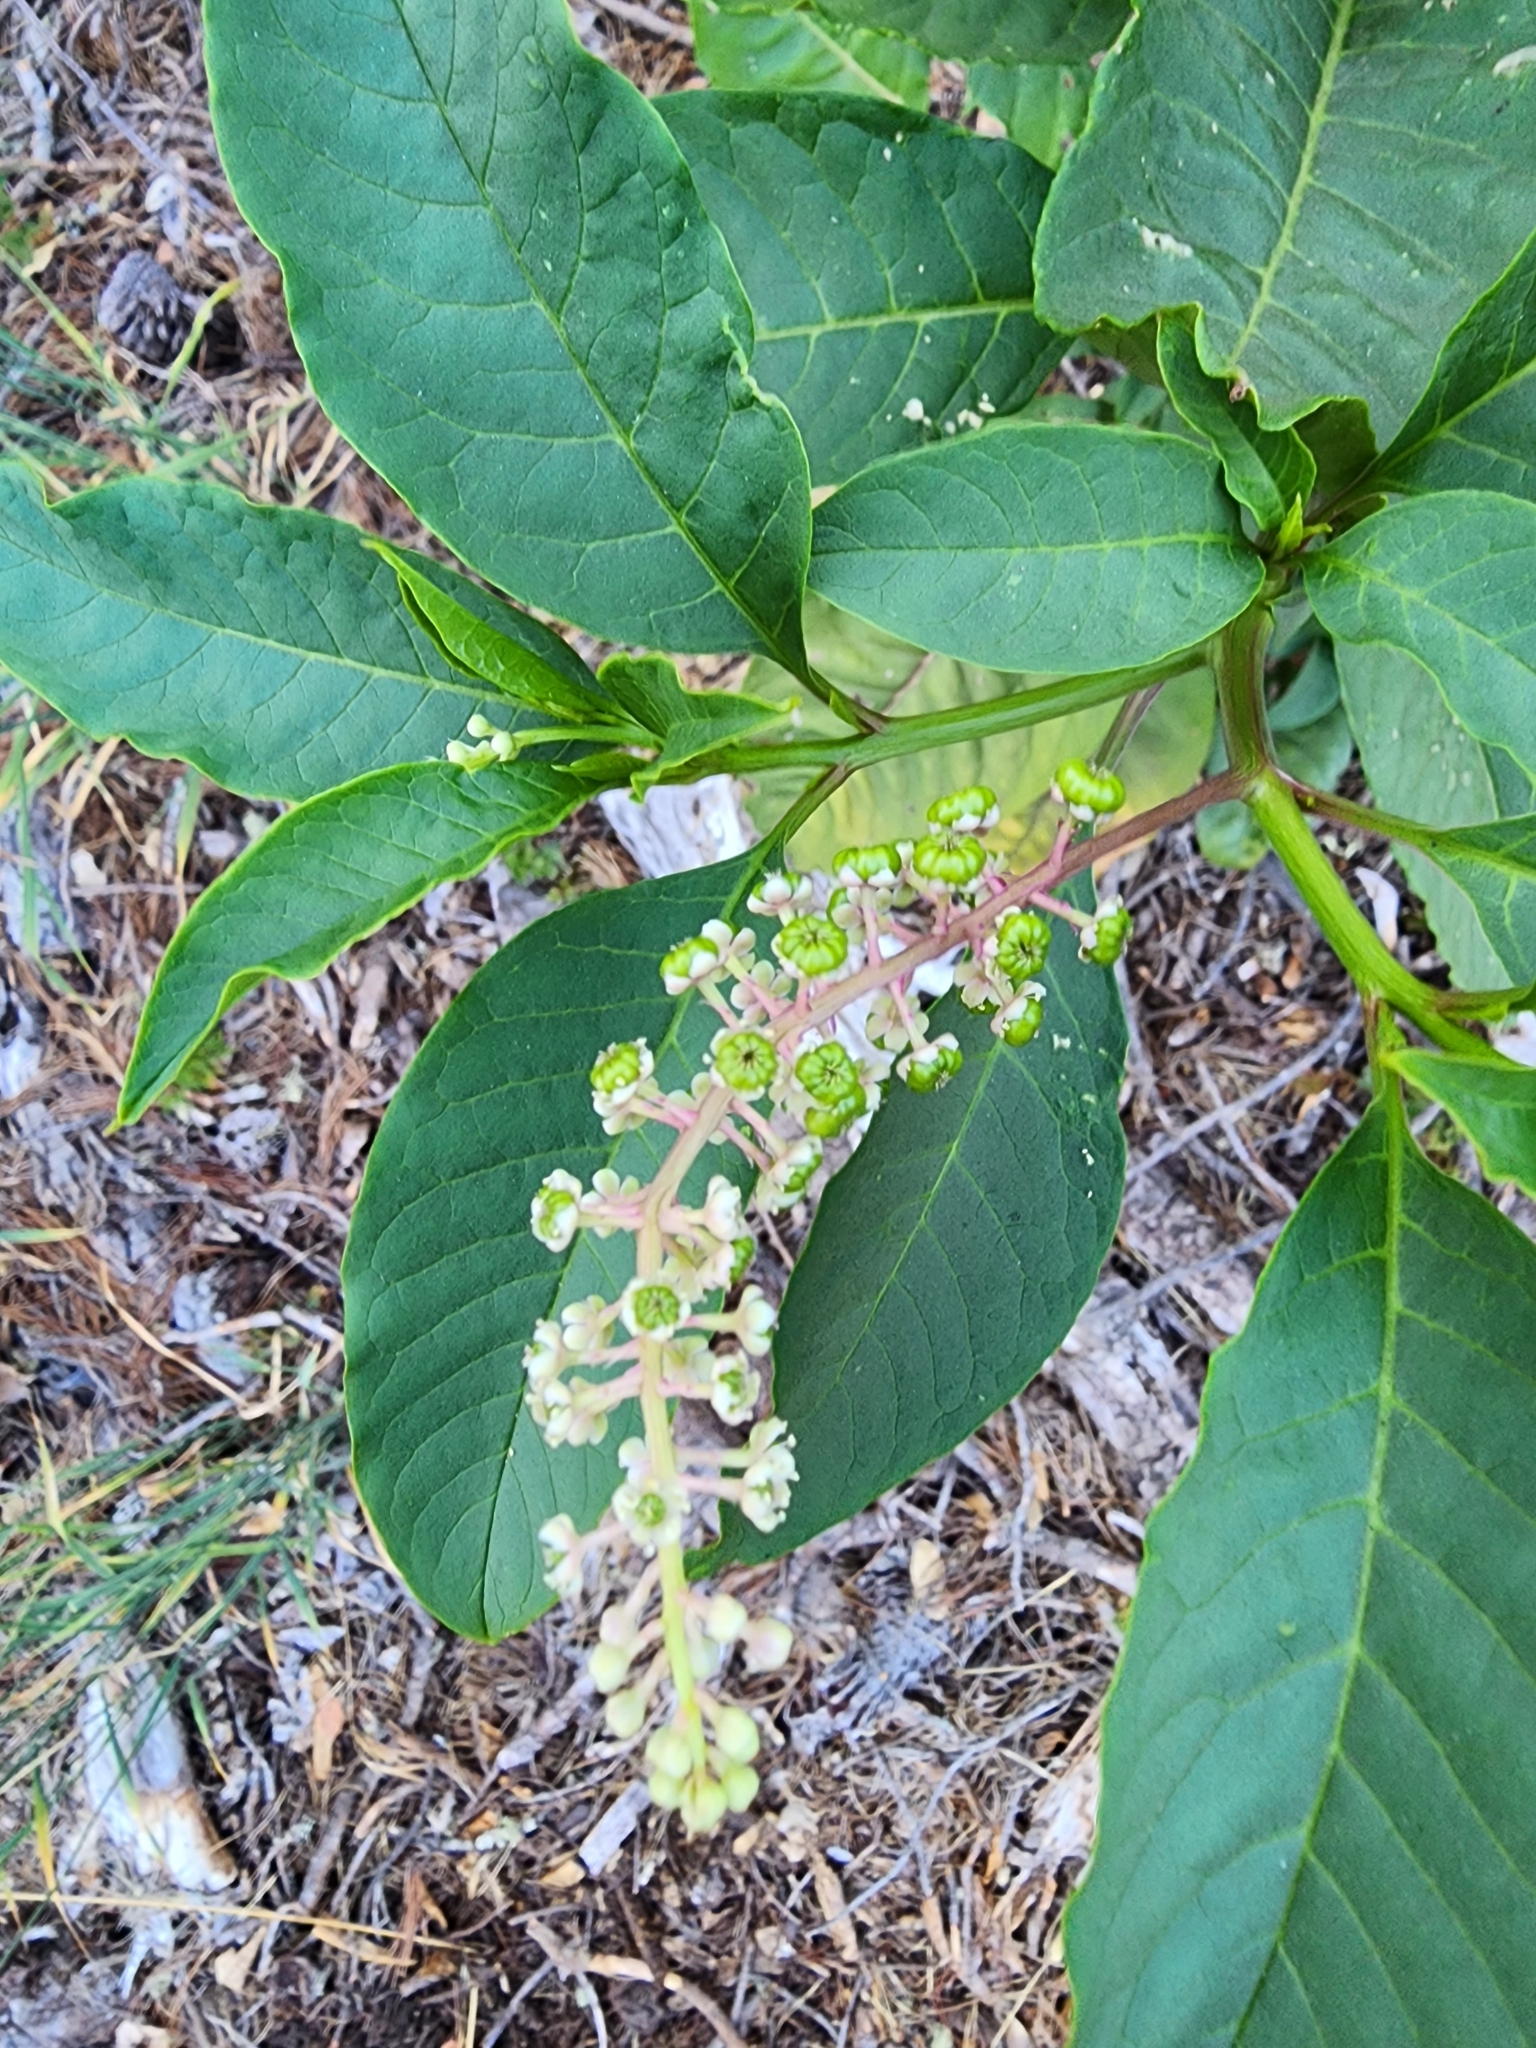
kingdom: Plantae
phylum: Tracheophyta
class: Magnoliopsida
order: Caryophyllales
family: Phytolaccaceae
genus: Phytolacca
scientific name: Phytolacca americana
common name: American pokeweed
